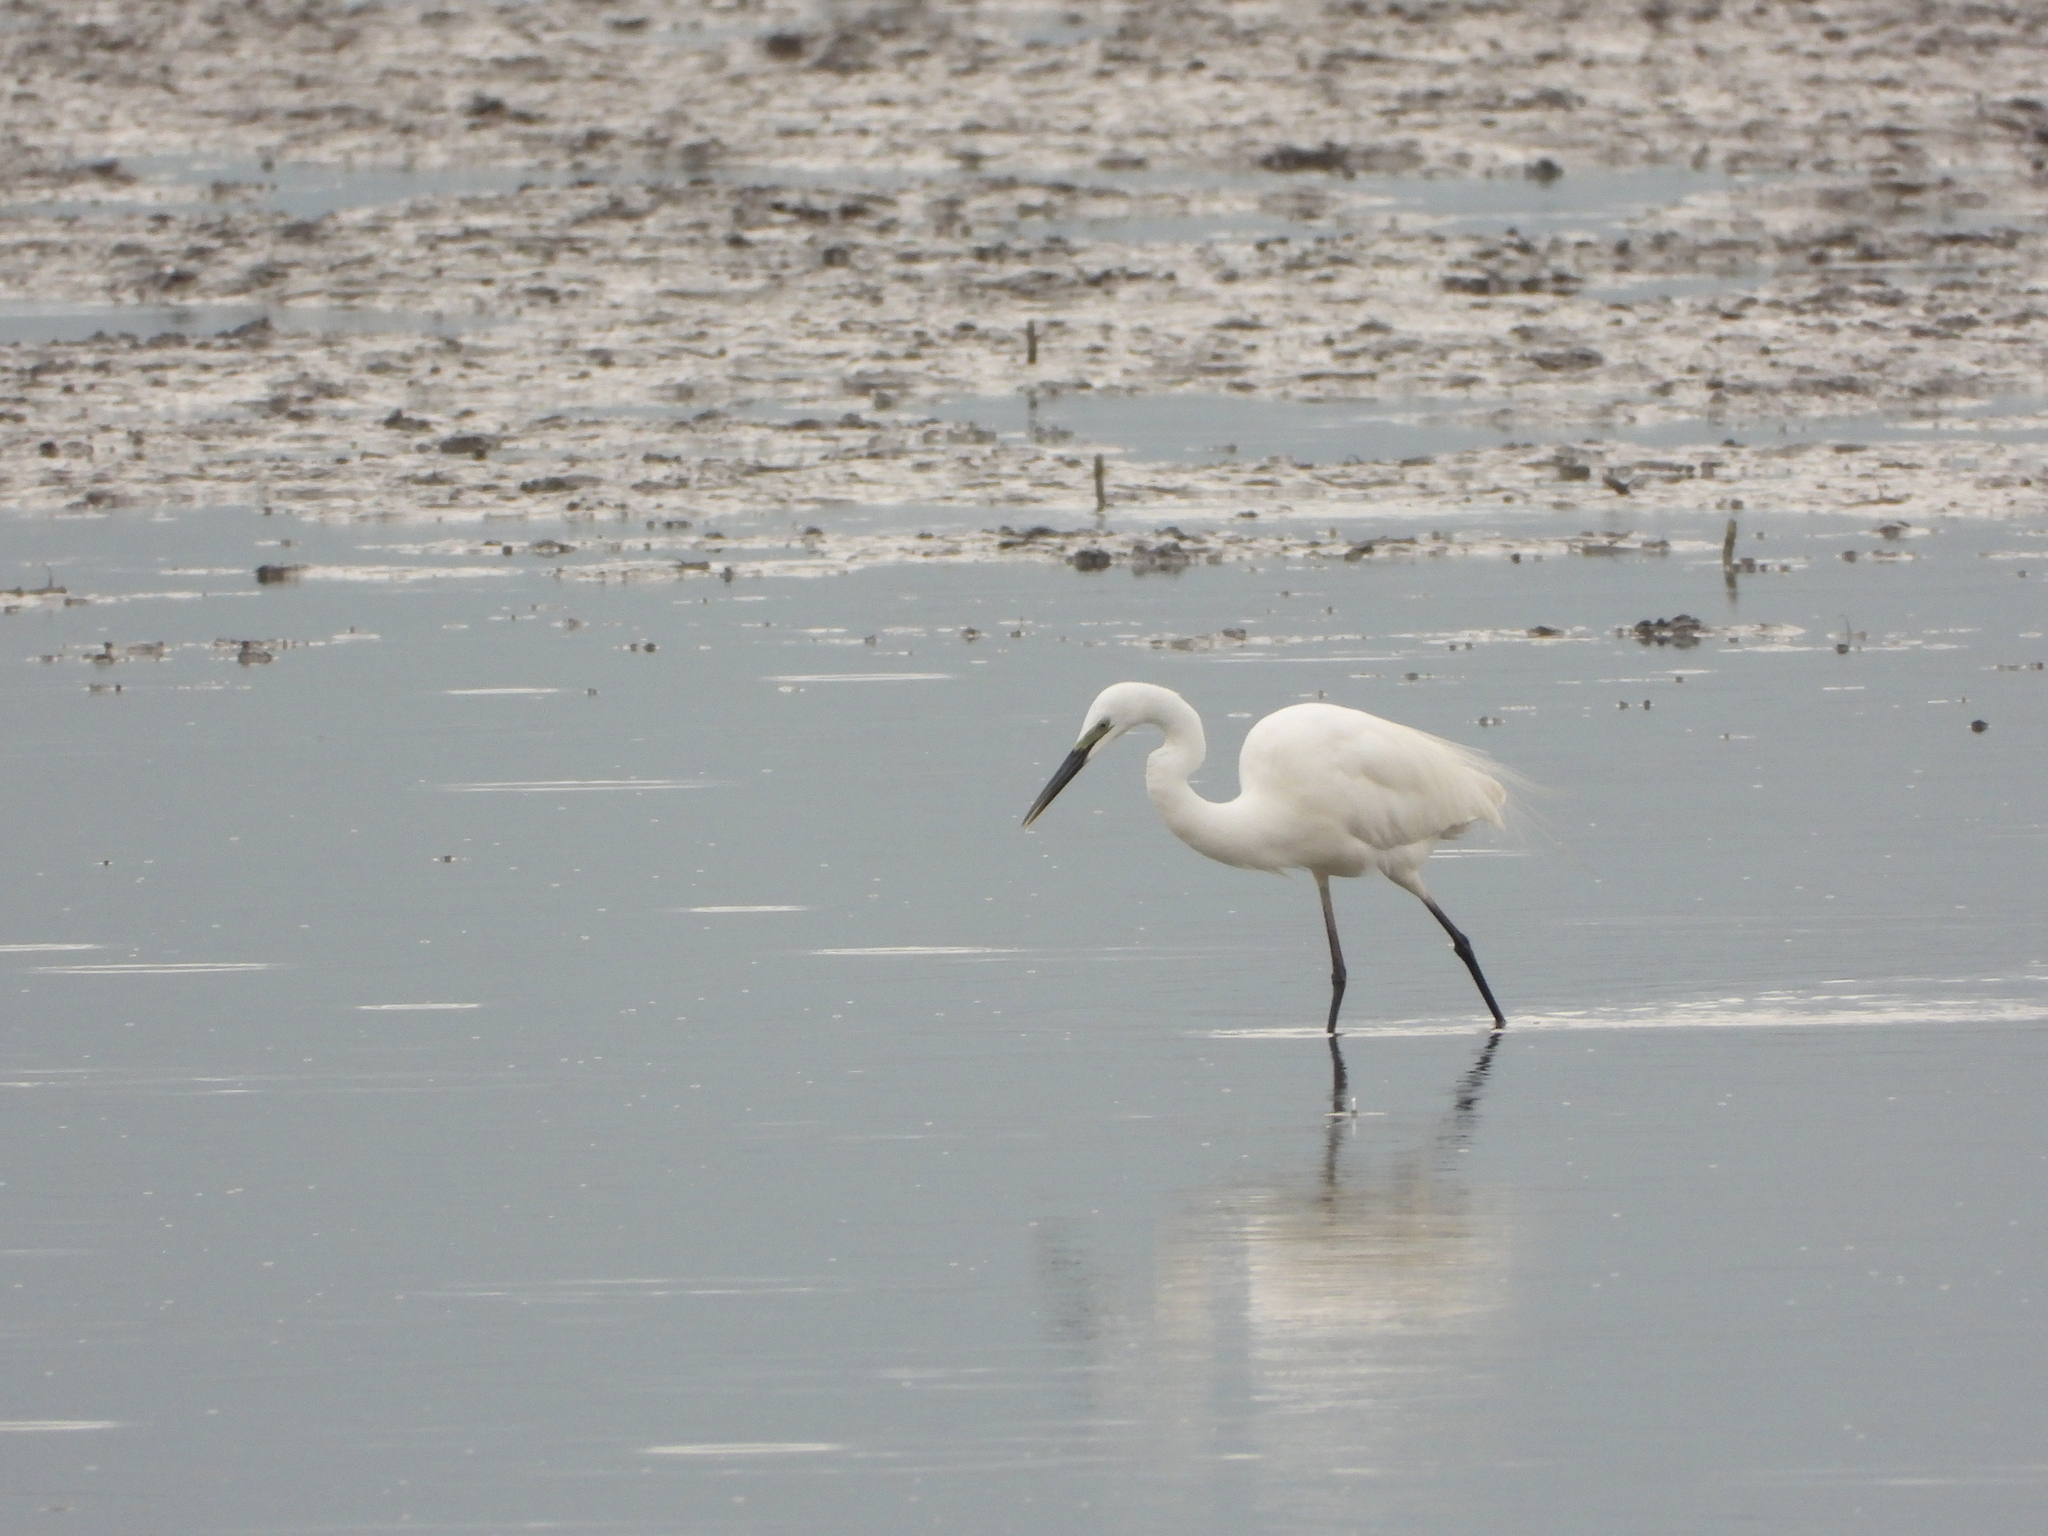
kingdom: Animalia
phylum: Chordata
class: Aves
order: Pelecaniformes
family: Ardeidae
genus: Ardea
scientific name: Ardea modesta
